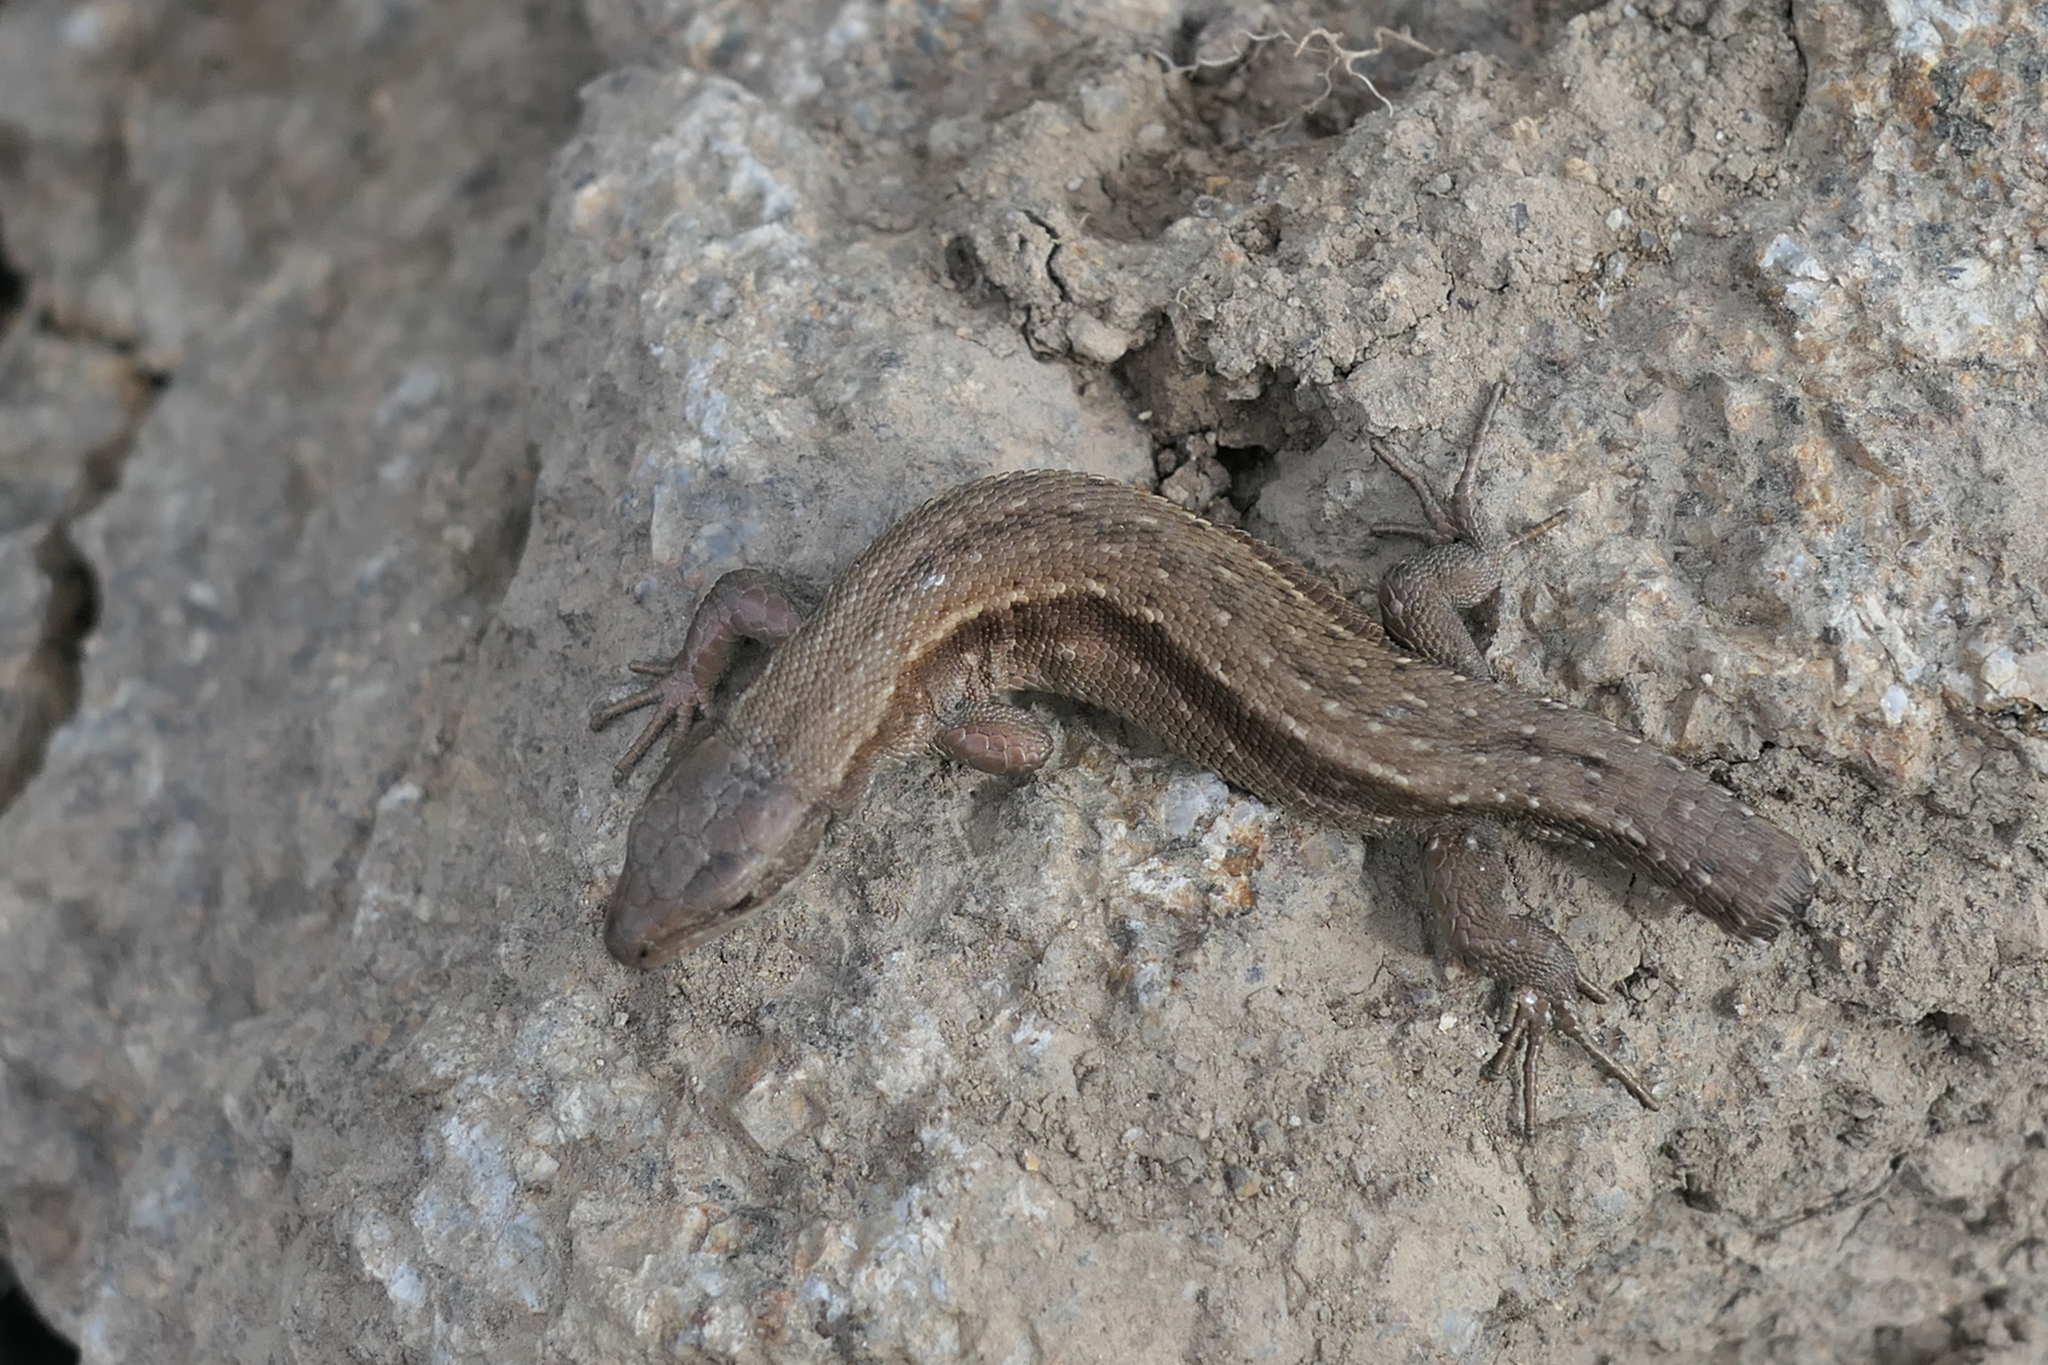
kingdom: Animalia
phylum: Chordata
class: Squamata
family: Lacertidae
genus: Zootoca
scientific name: Zootoca vivipara
